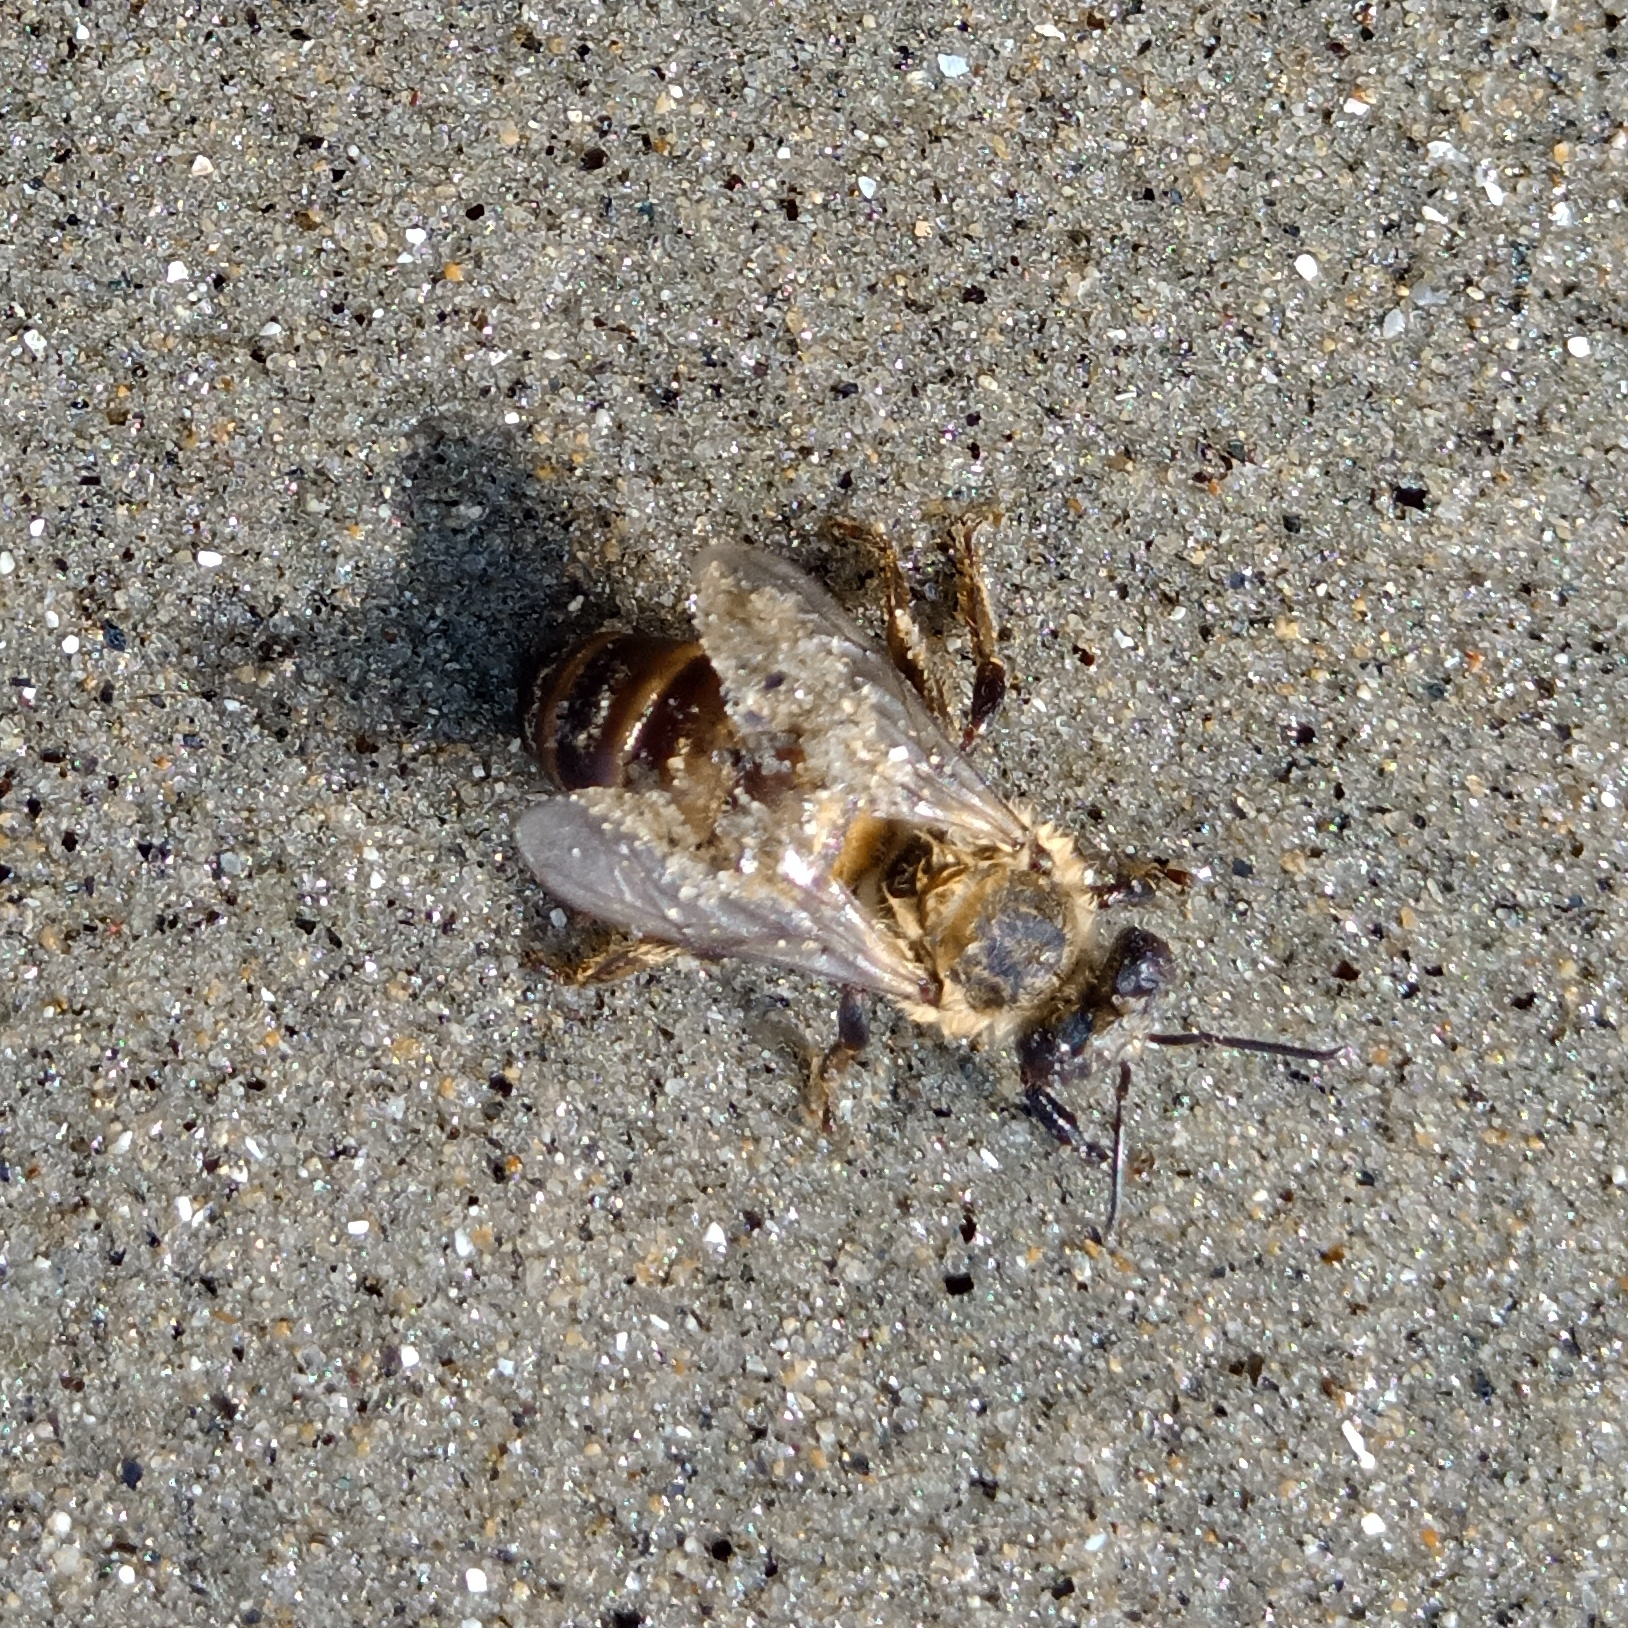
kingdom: Animalia
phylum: Arthropoda
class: Insecta
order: Hymenoptera
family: Apidae
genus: Apis
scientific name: Apis mellifera
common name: Honey bee
